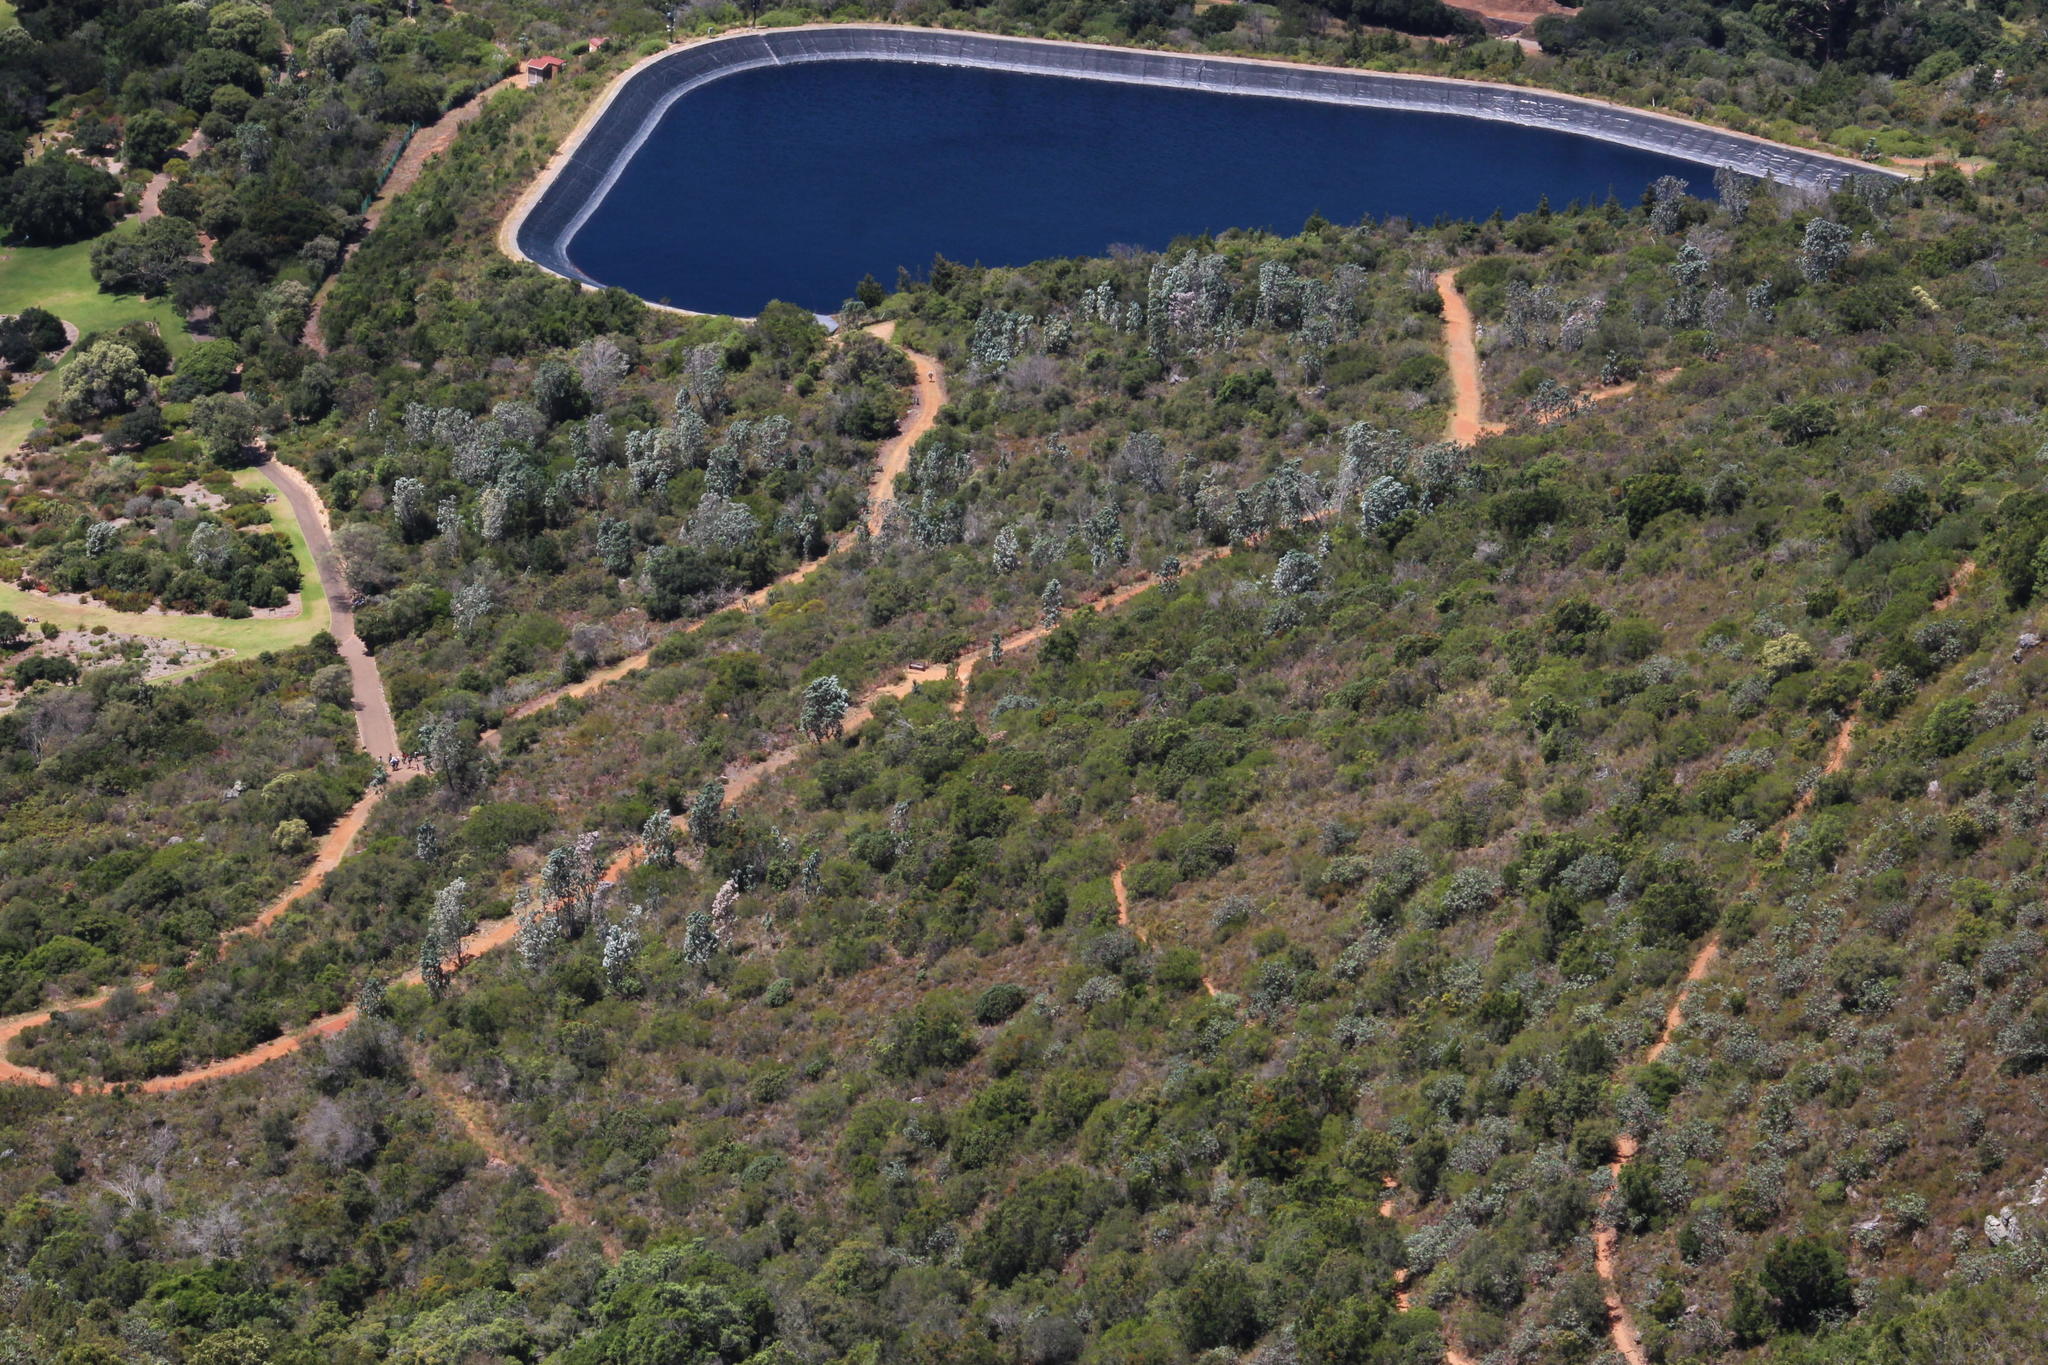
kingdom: Plantae
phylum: Tracheophyta
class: Magnoliopsida
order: Proteales
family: Proteaceae
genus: Leucadendron
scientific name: Leucadendron argenteum
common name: Cape silver tree
